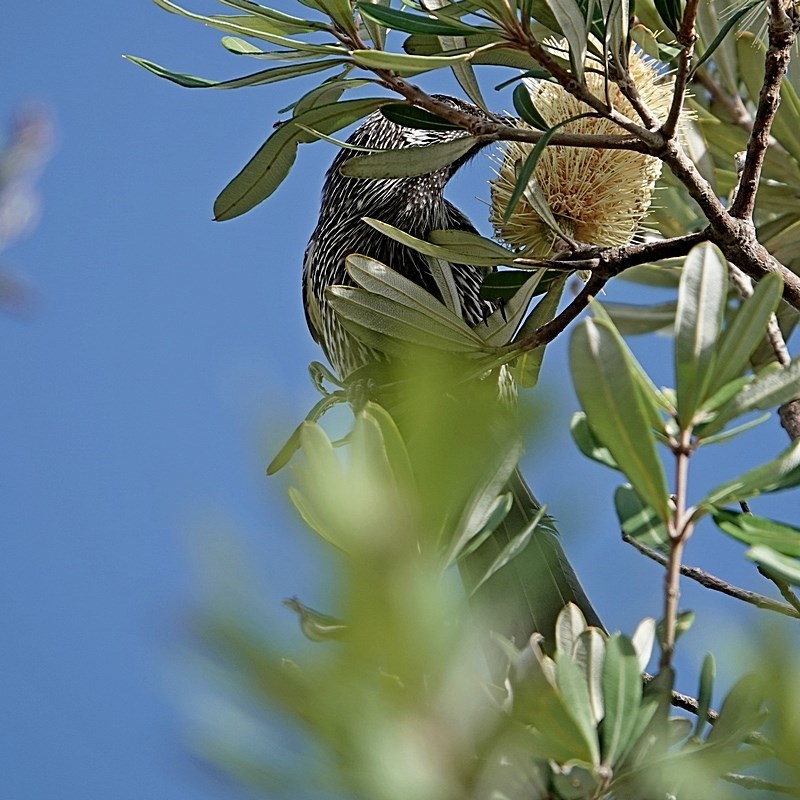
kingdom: Animalia
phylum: Chordata
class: Aves
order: Passeriformes
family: Meliphagidae
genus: Anthochaera
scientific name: Anthochaera chrysoptera
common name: Little wattlebird
